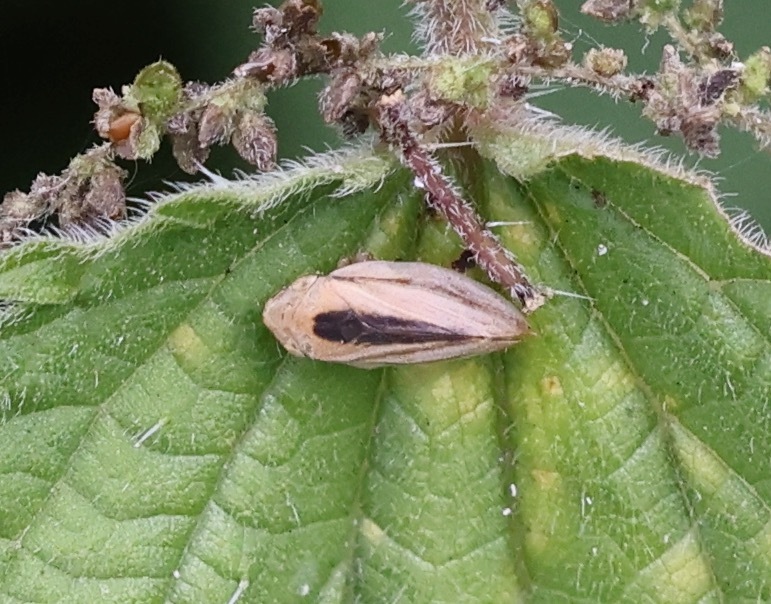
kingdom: Animalia
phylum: Arthropoda
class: Insecta
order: Hemiptera
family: Aphrophoridae
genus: Philaenus
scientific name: Philaenus spumarius
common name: Meadow spittlebug
